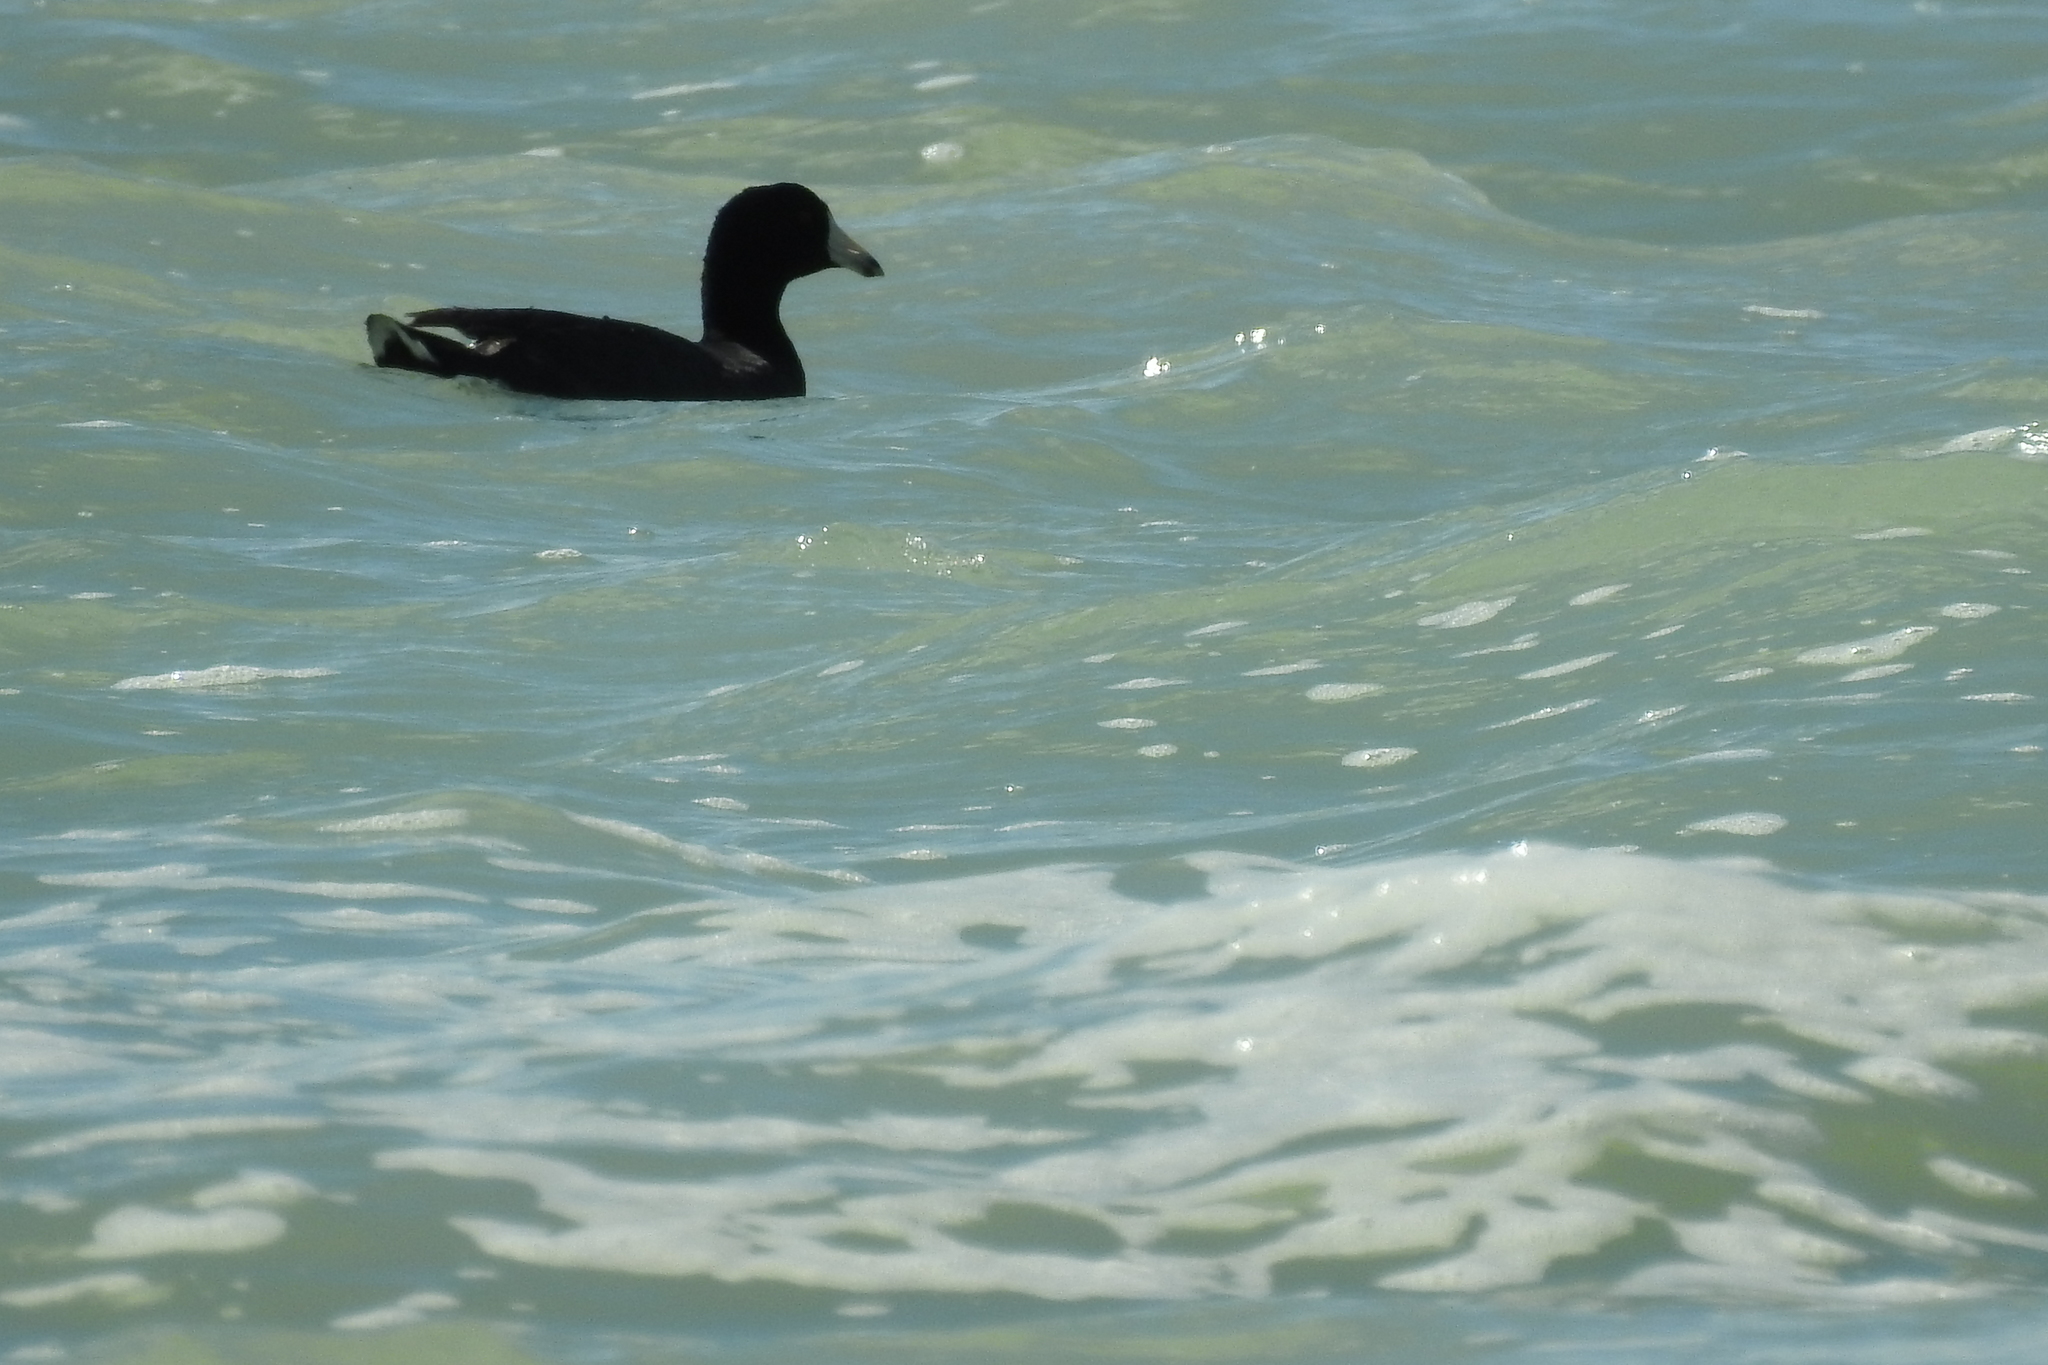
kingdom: Animalia
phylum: Chordata
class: Aves
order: Gruiformes
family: Rallidae
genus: Fulica
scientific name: Fulica americana
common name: American coot
